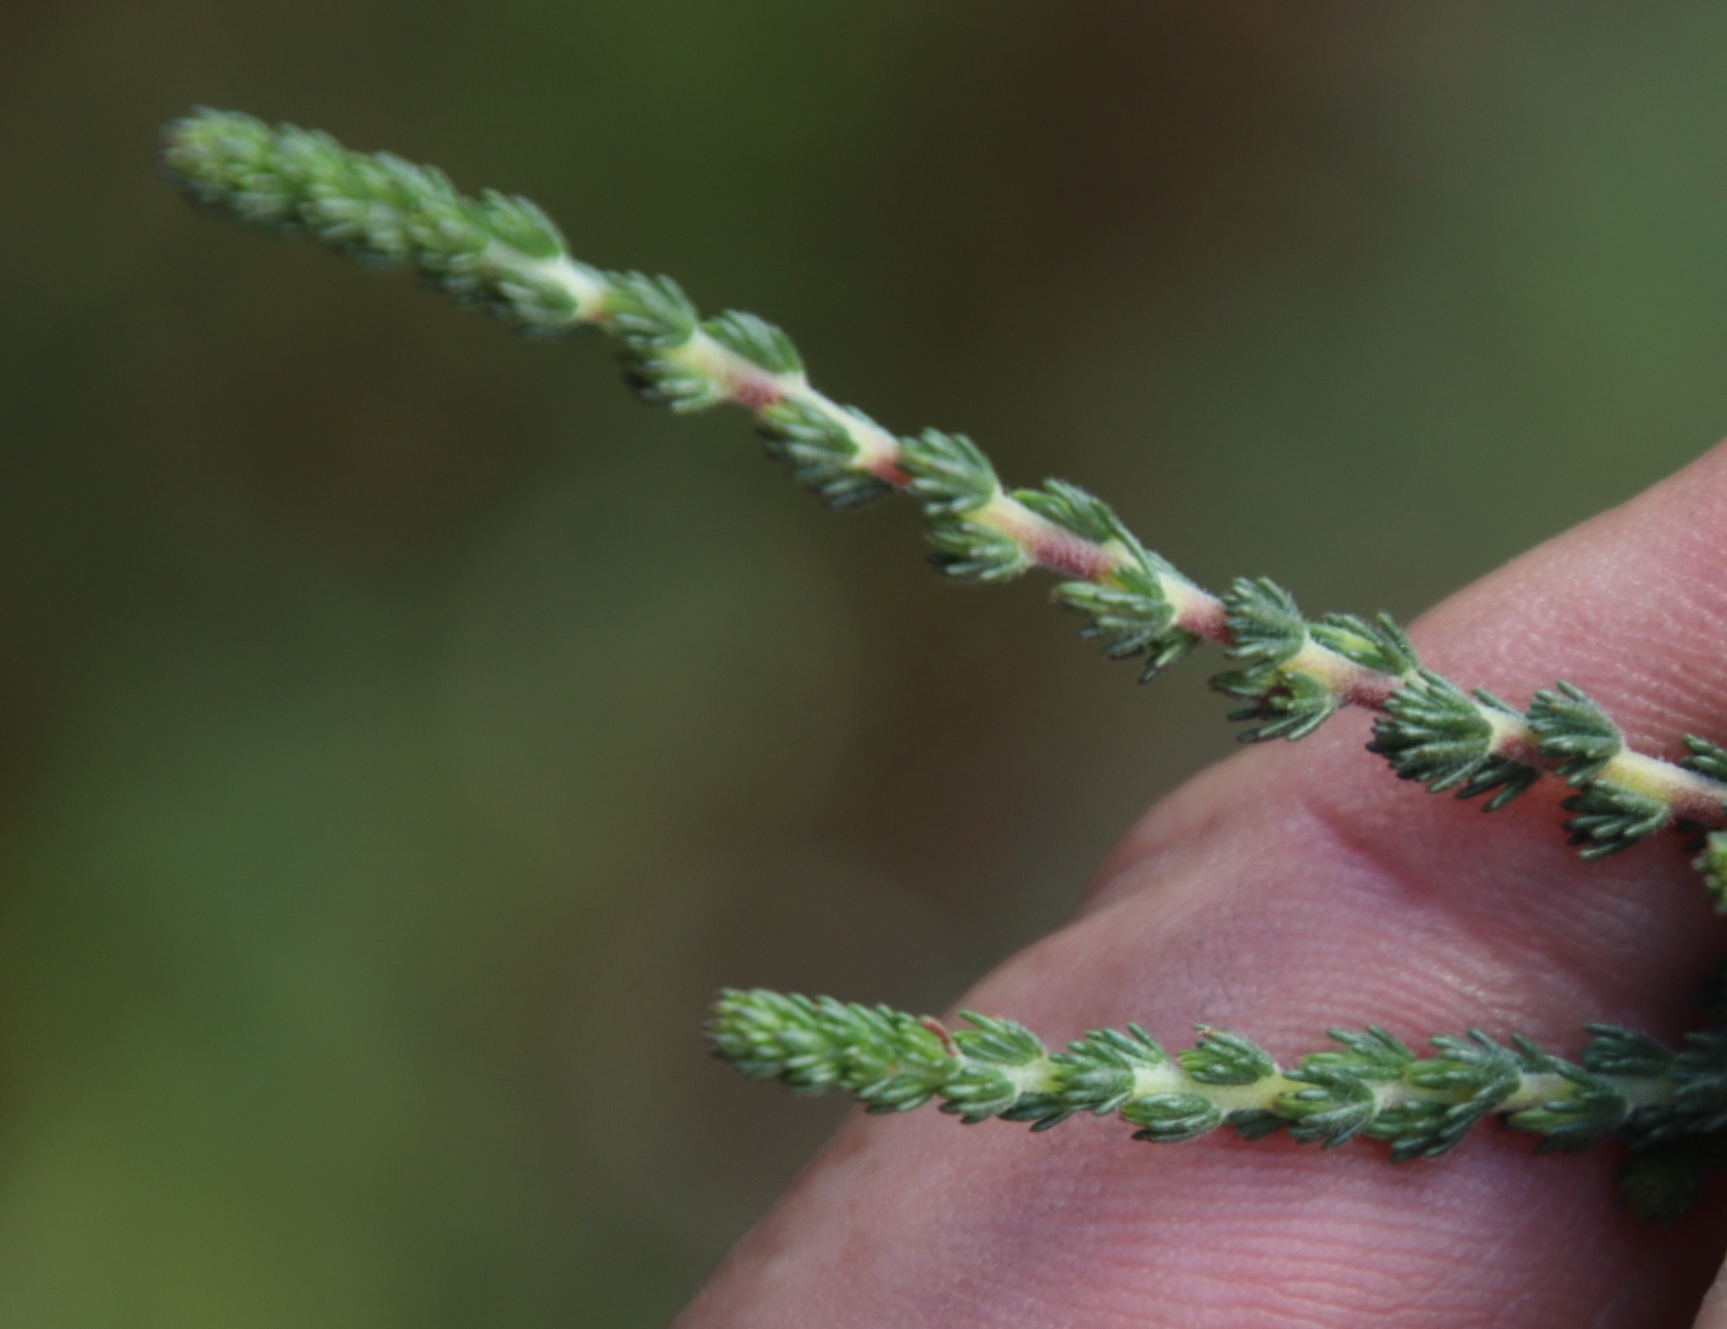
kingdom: Plantae
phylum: Tracheophyta
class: Magnoliopsida
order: Fabales
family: Fabaceae
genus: Aspalathus
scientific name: Aspalathus hispida
